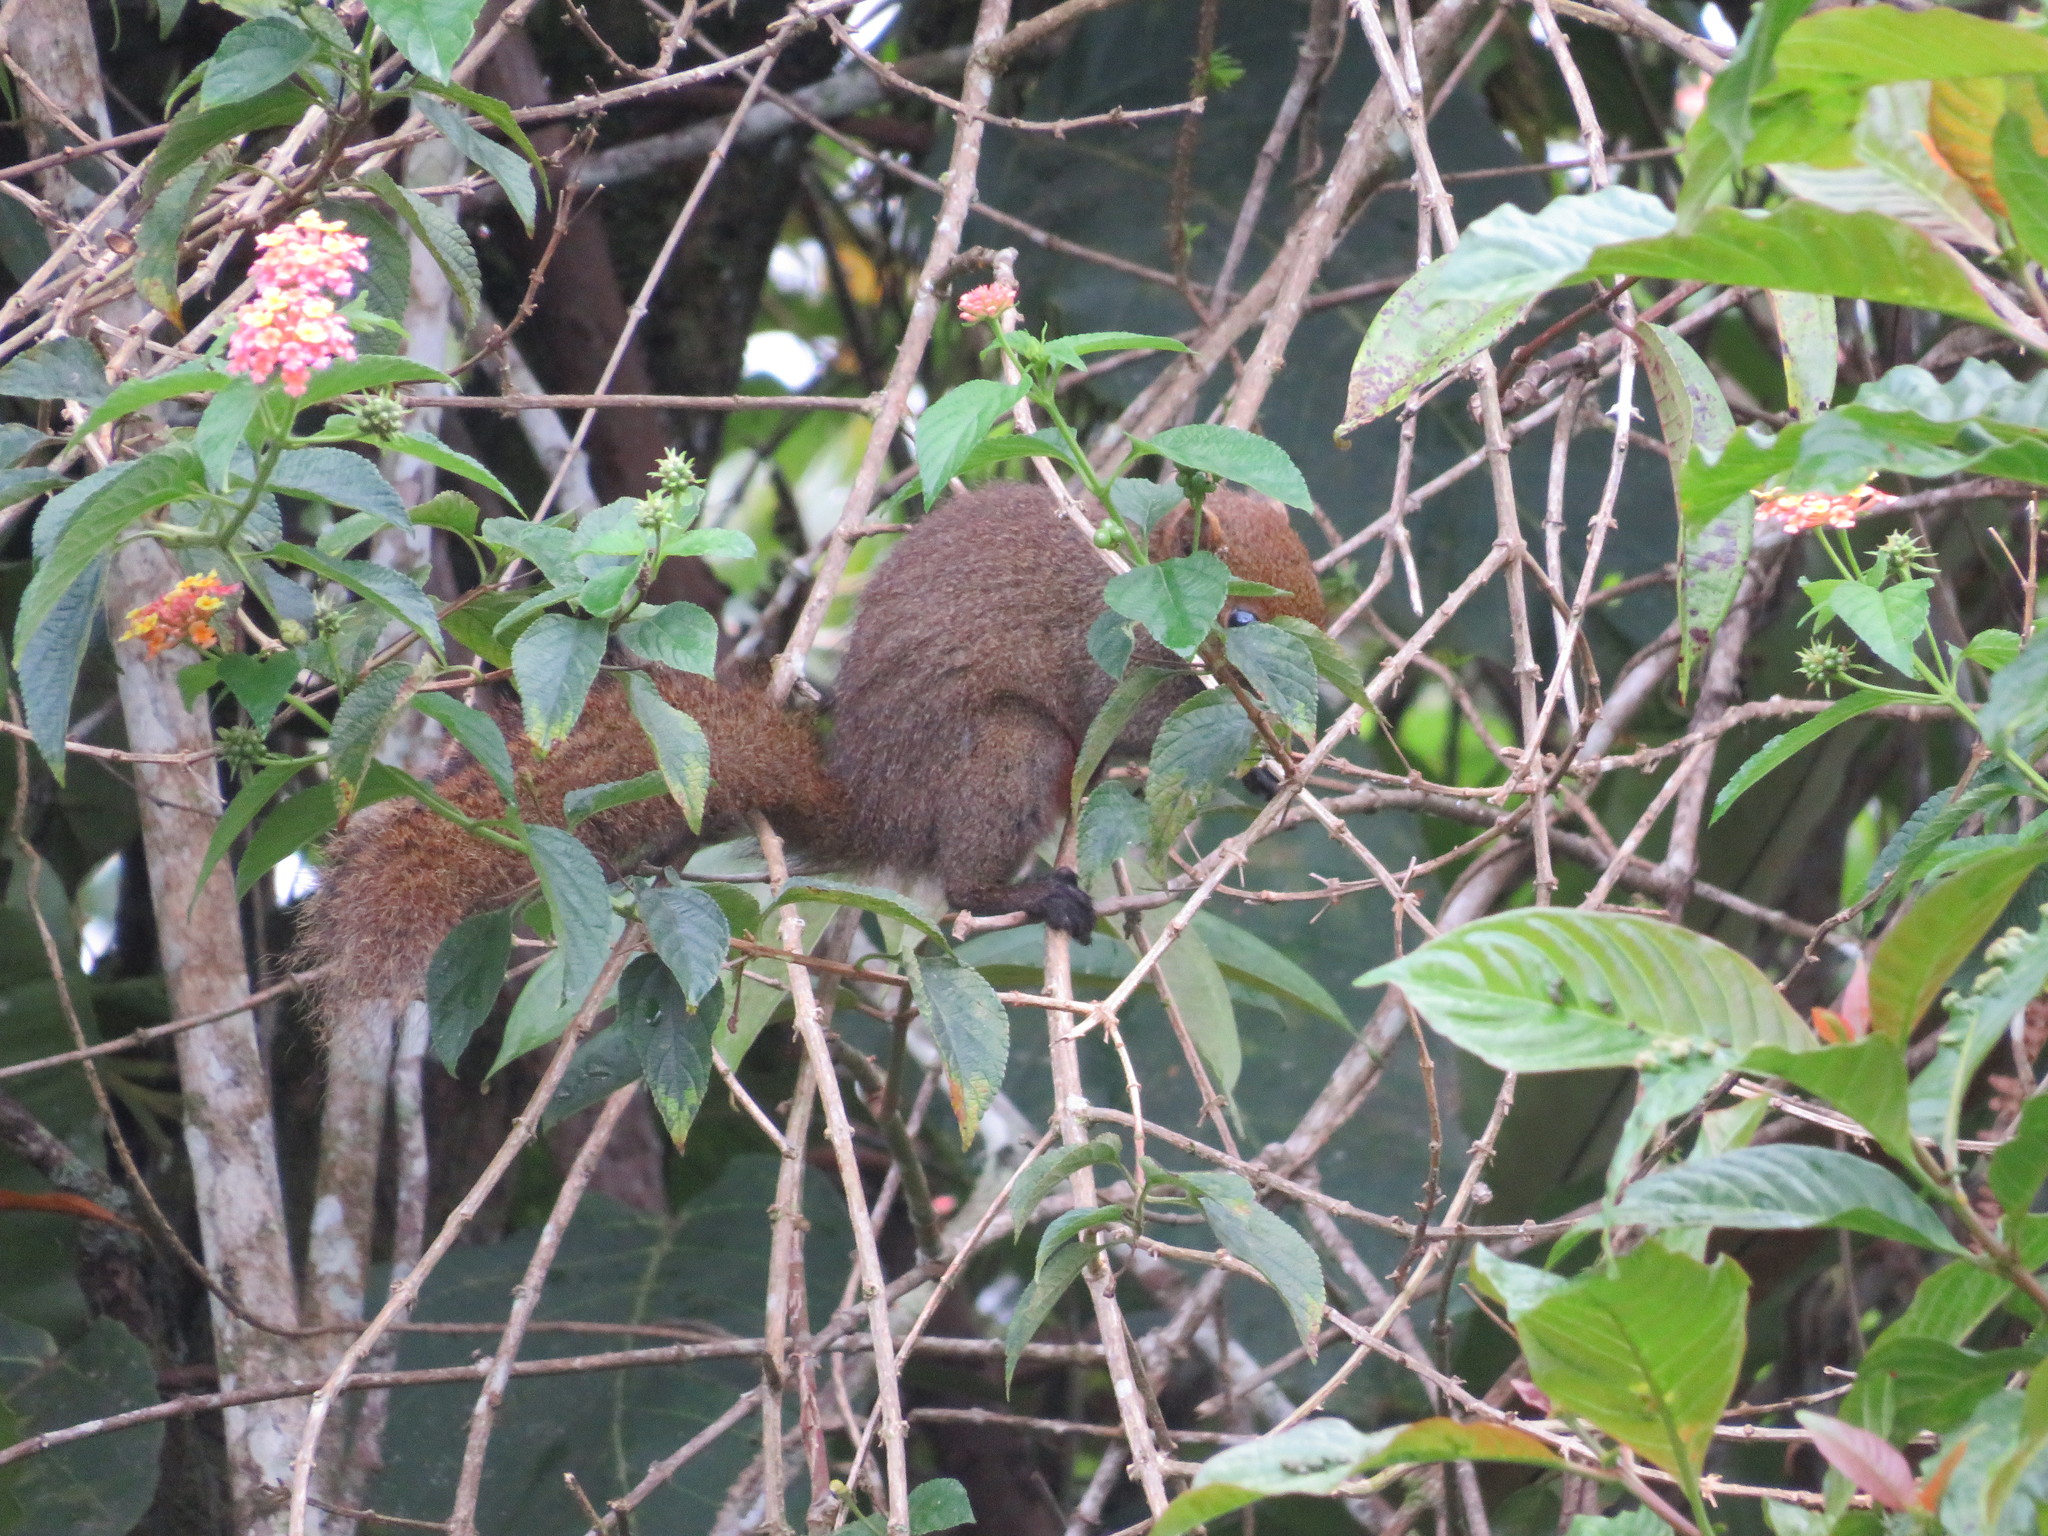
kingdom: Animalia
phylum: Chordata
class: Mammalia
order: Rodentia
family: Sciuridae
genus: Callosciurus
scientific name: Callosciurus erythraeus
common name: Pallas's squirrel
